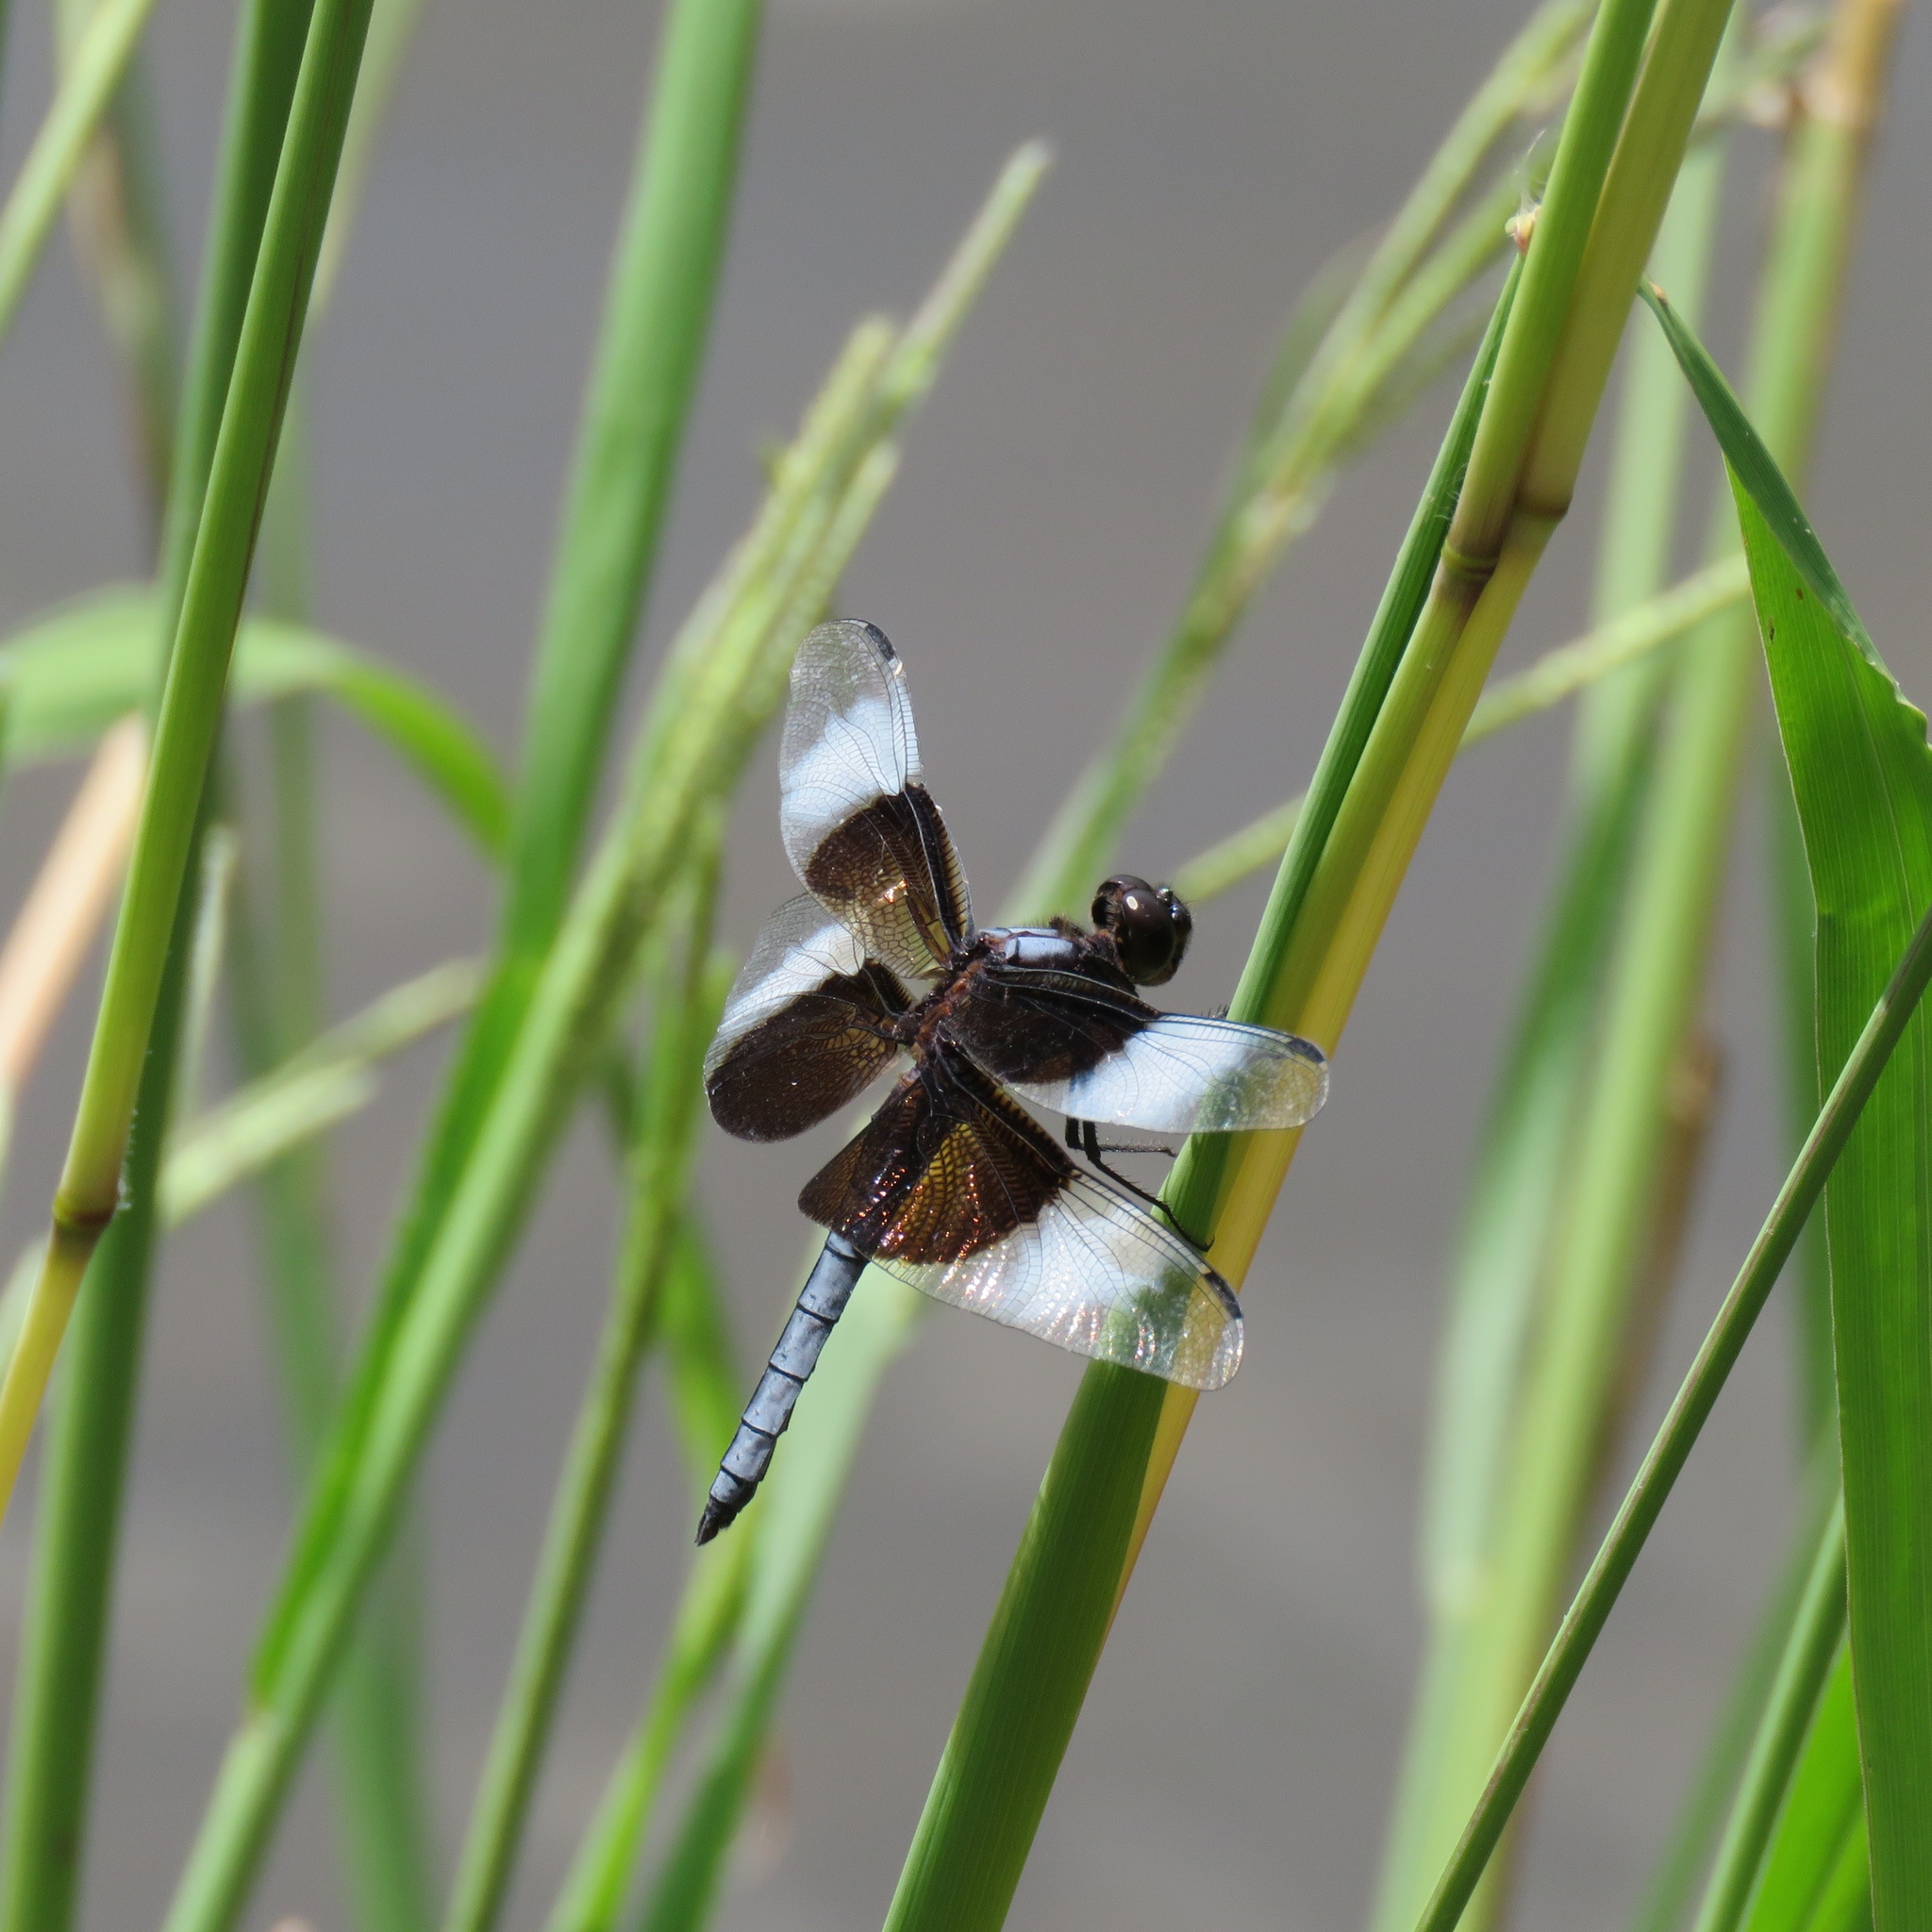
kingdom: Animalia
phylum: Arthropoda
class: Insecta
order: Odonata
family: Libellulidae
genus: Libellula
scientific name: Libellula luctuosa
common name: Widow skimmer
